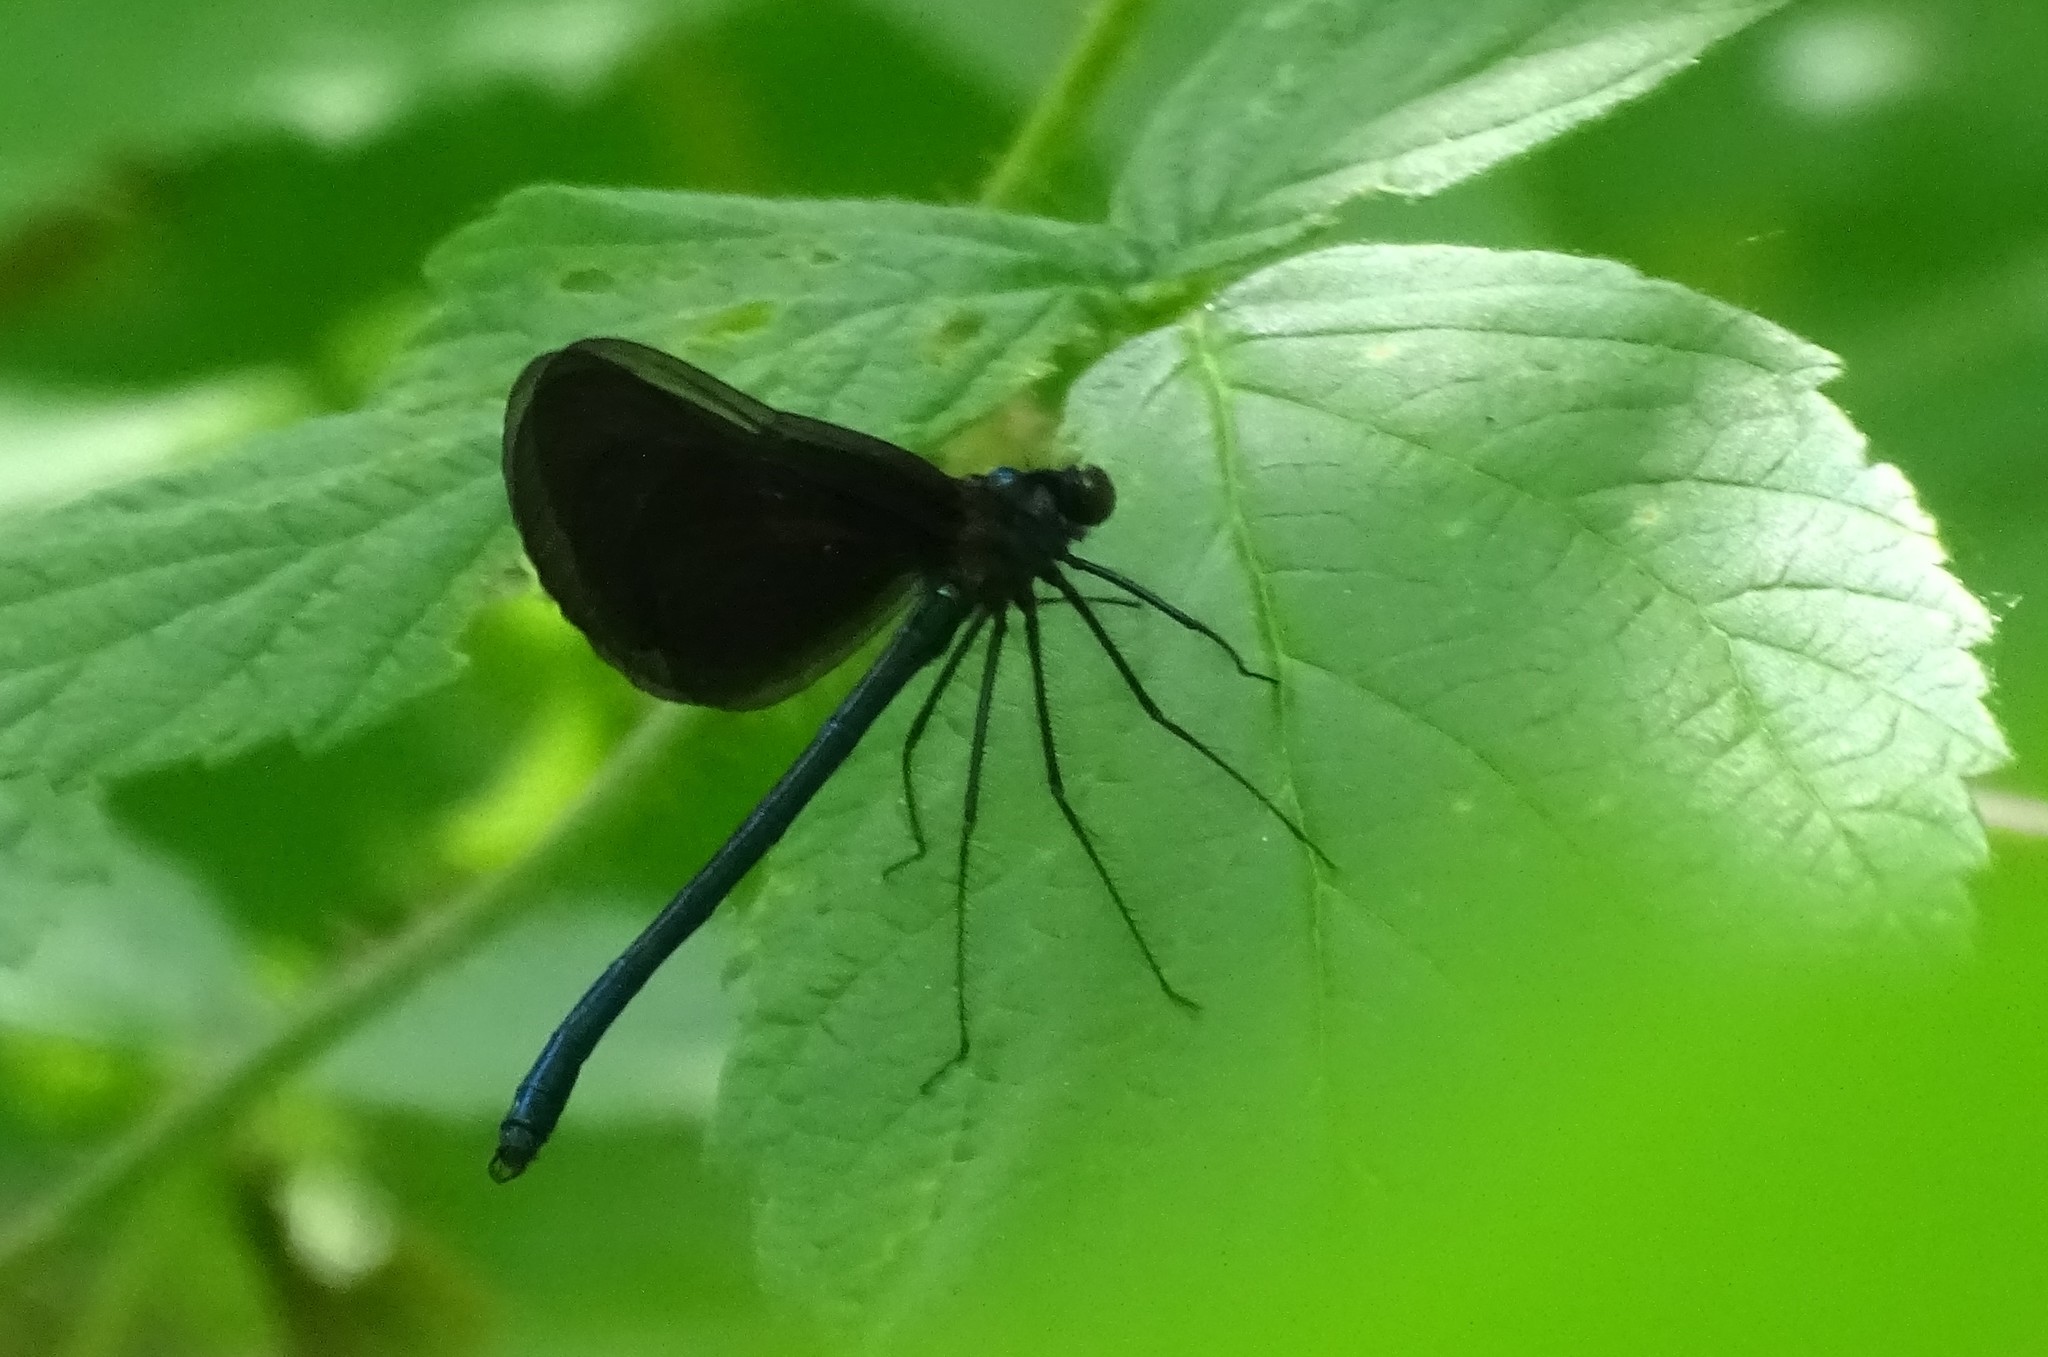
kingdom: Animalia
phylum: Arthropoda
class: Insecta
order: Odonata
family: Calopterygidae
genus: Calopteryx
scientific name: Calopteryx maculata
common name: Ebony jewelwing
